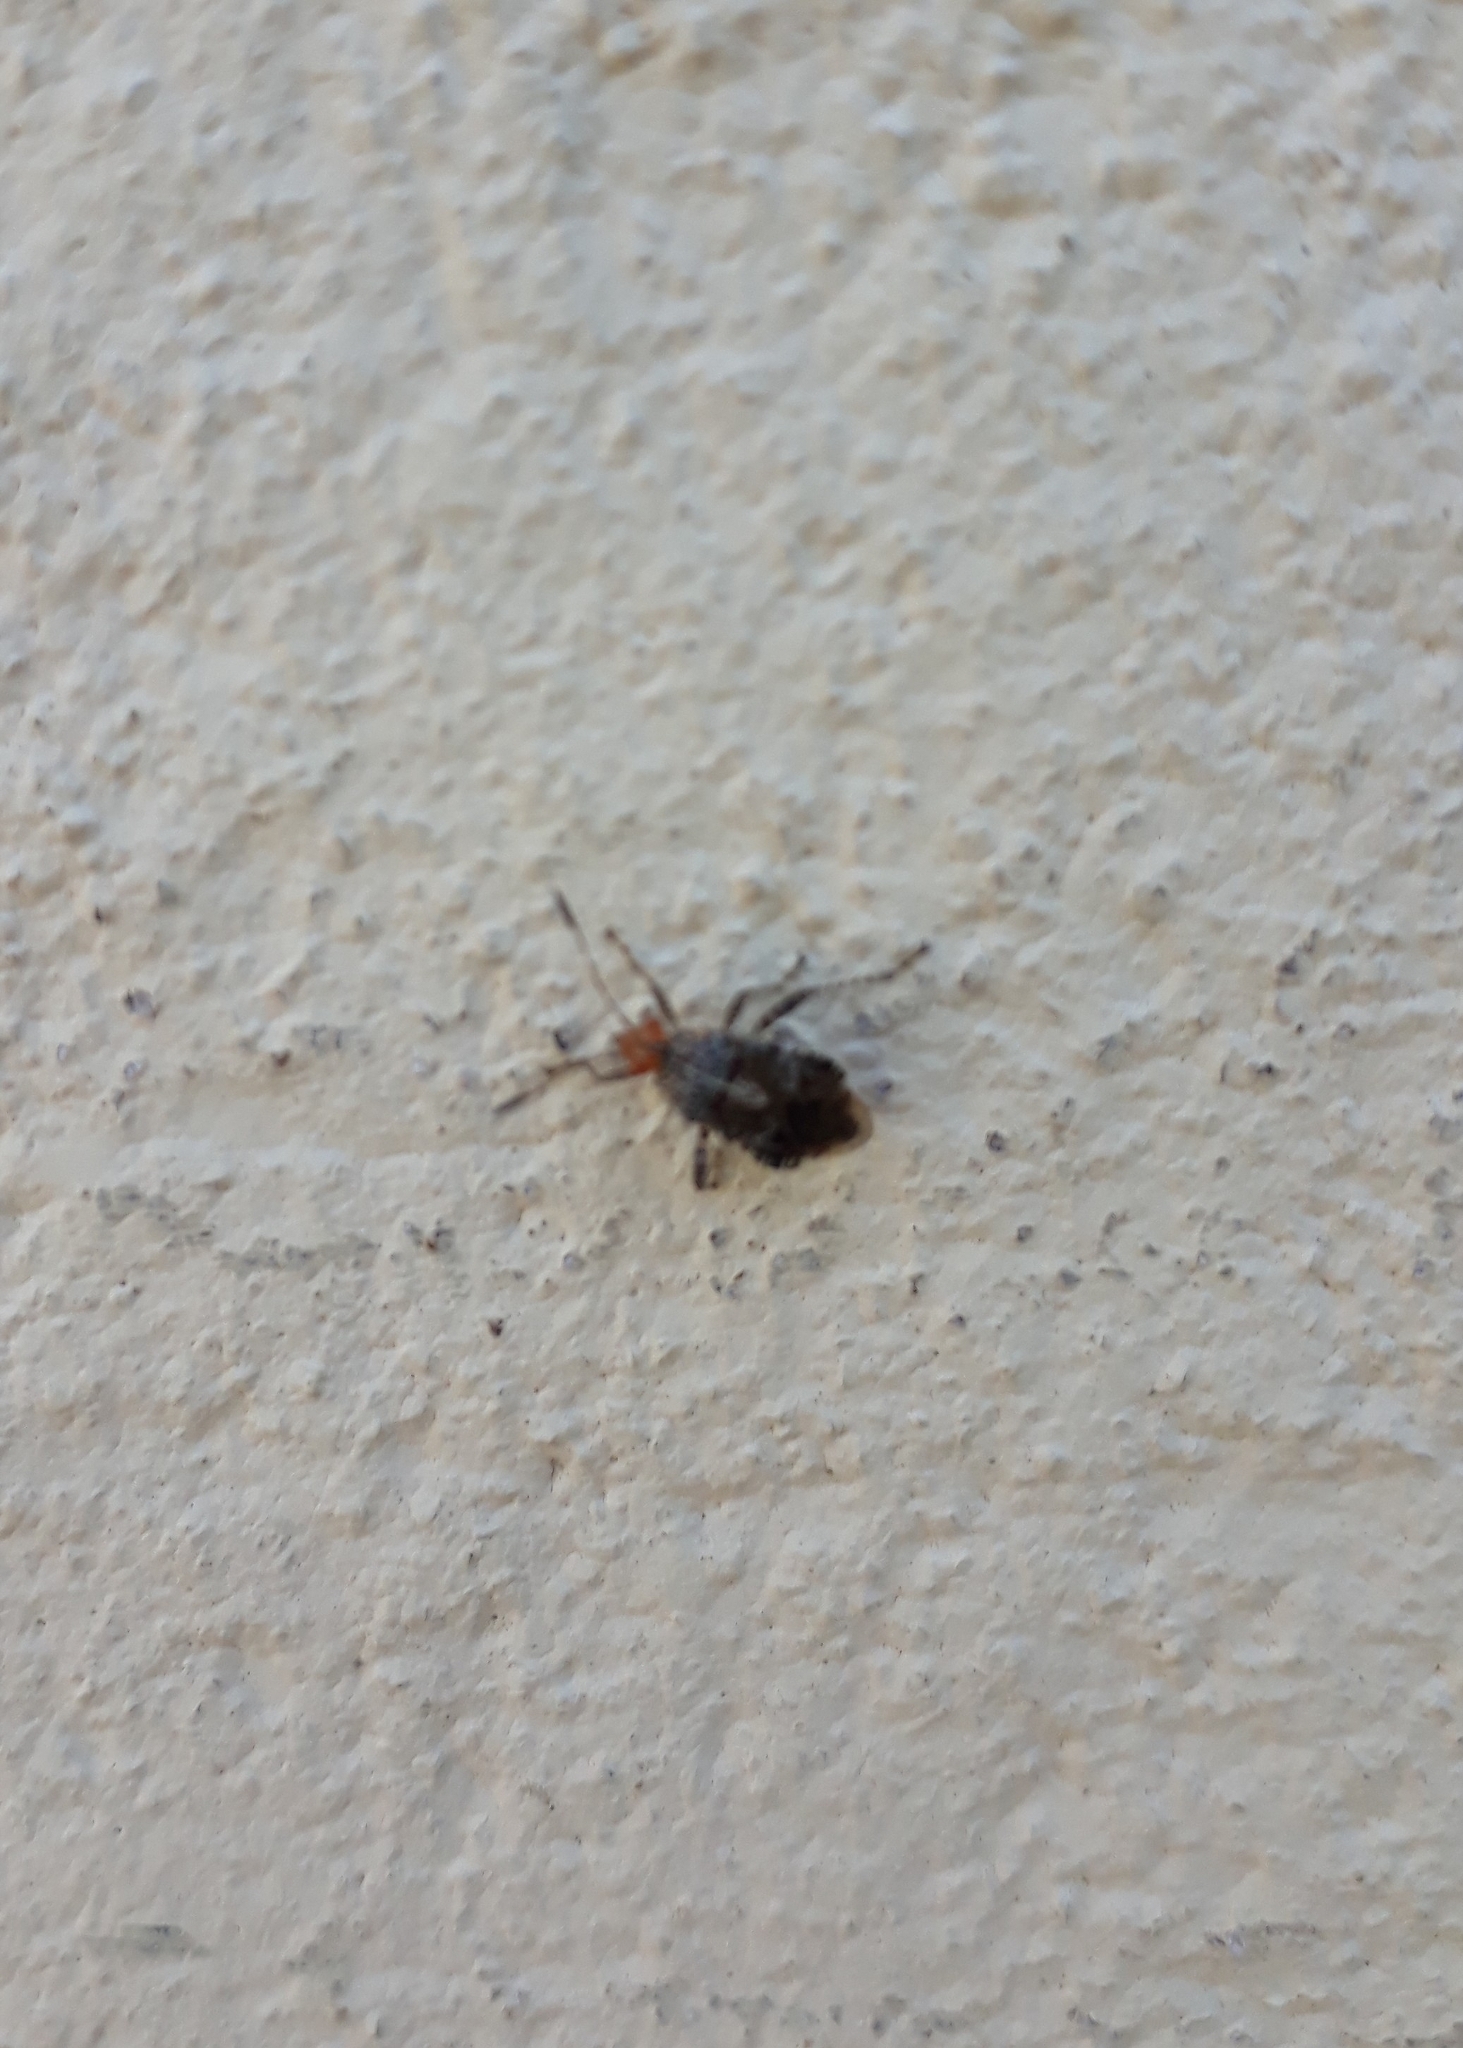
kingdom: Animalia
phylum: Arthropoda
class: Insecta
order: Hemiptera
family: Rhopalidae
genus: Niesthrea
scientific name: Niesthrea
